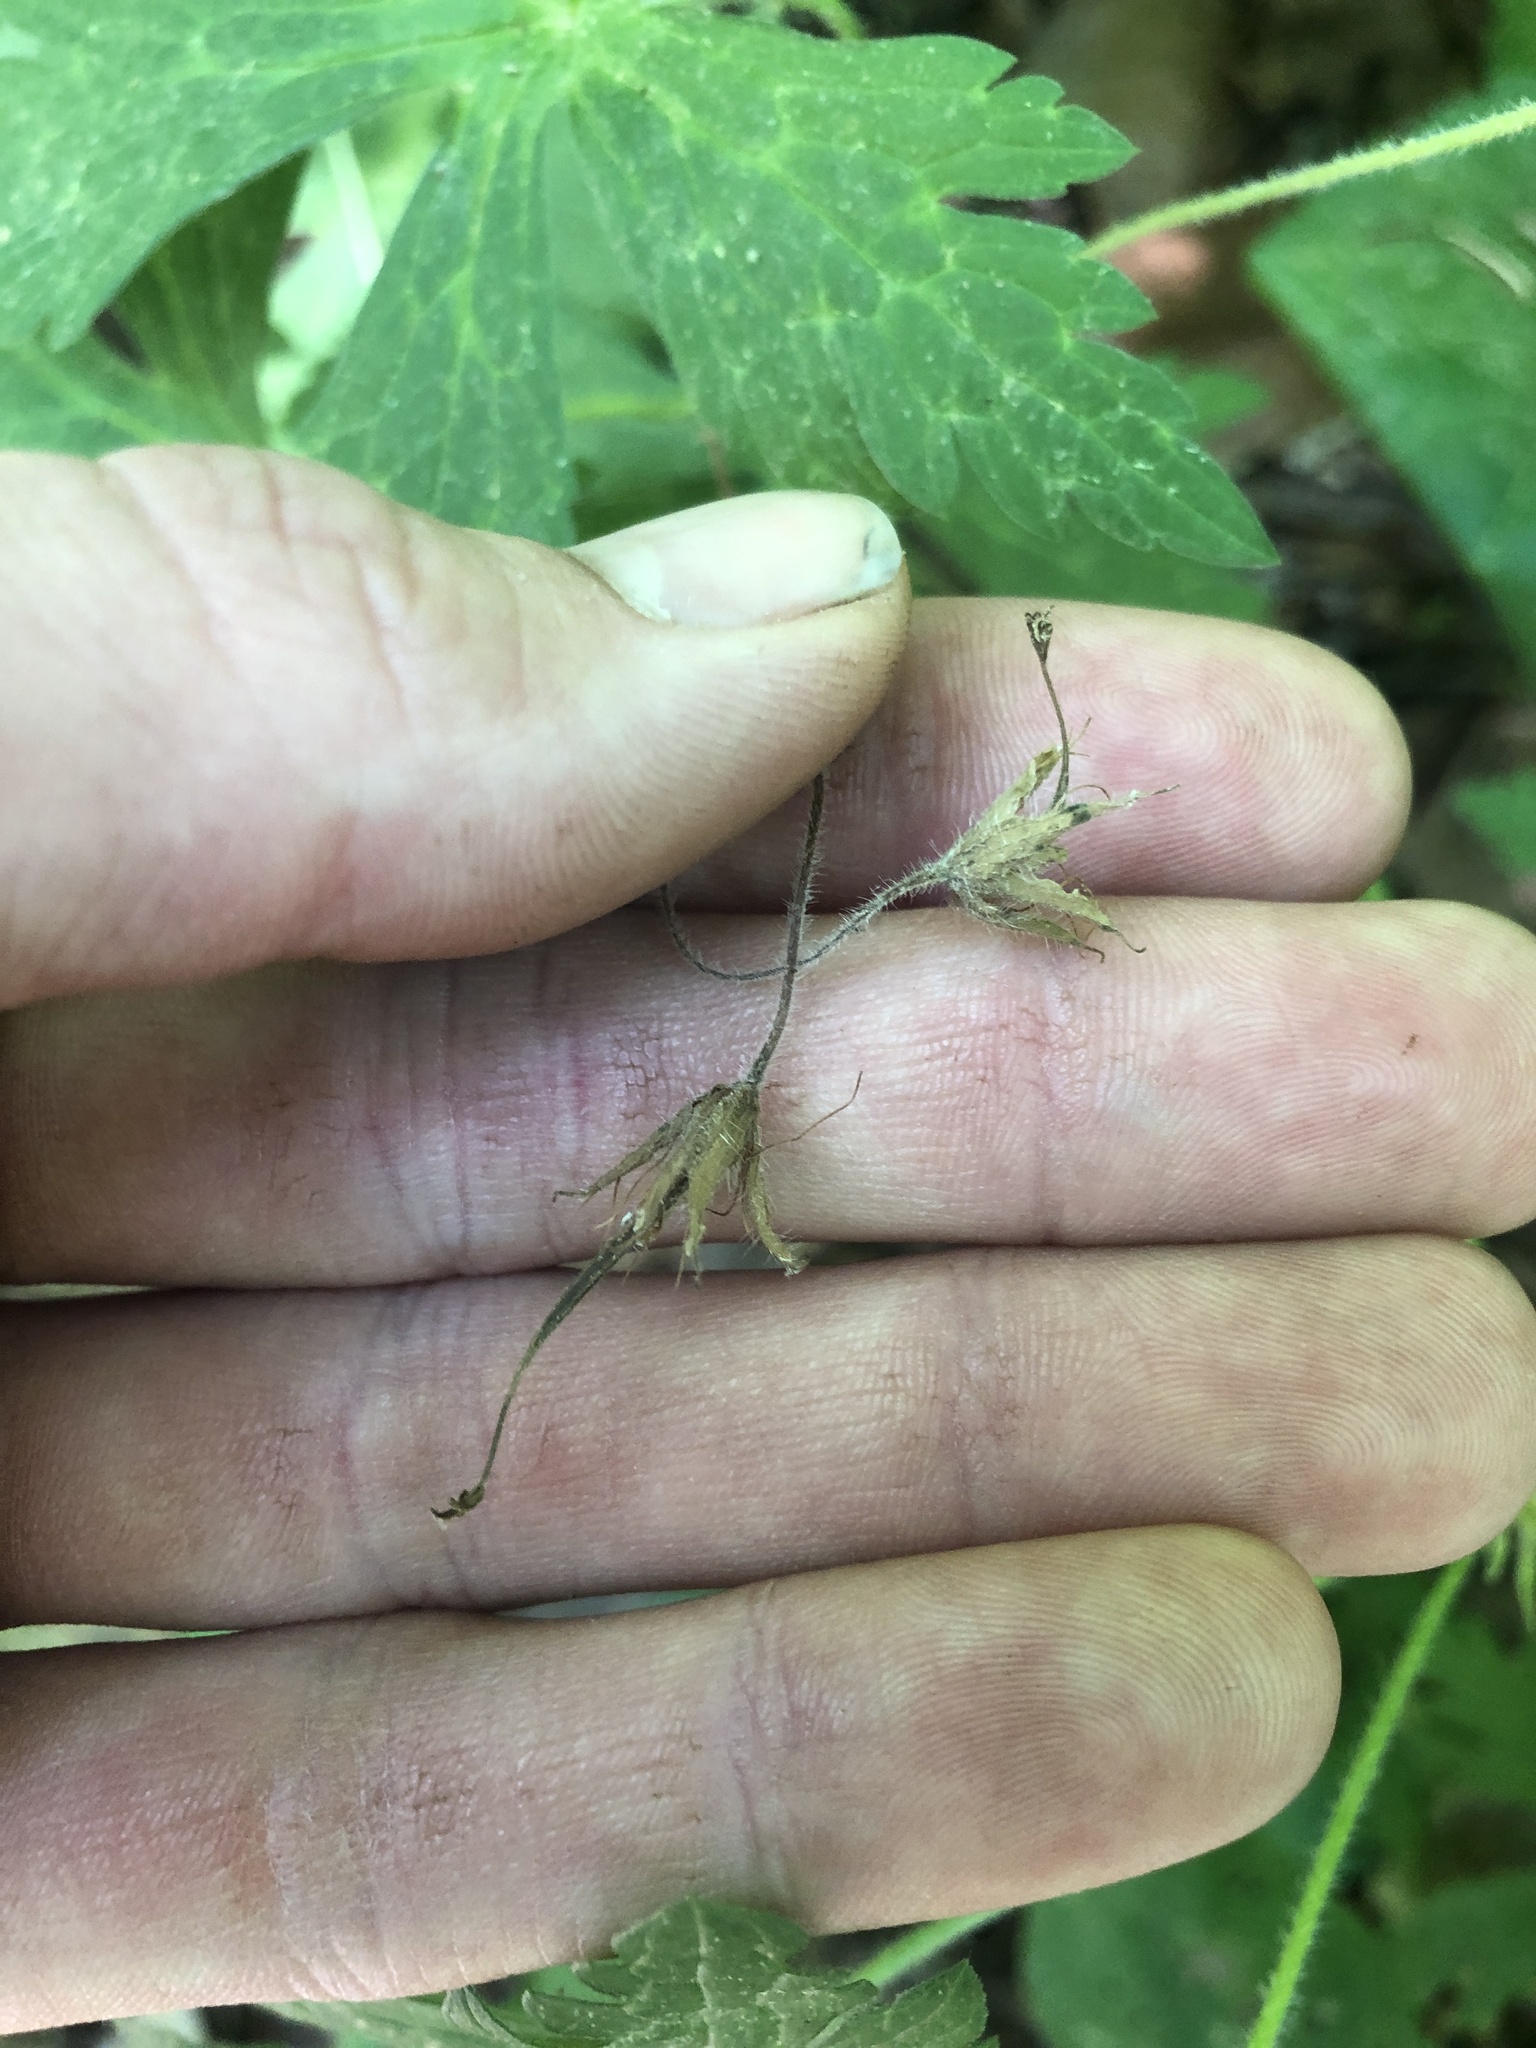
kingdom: Plantae
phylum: Tracheophyta
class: Magnoliopsida
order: Geraniales
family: Geraniaceae
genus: Geranium
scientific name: Geranium maculatum
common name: Spotted geranium
